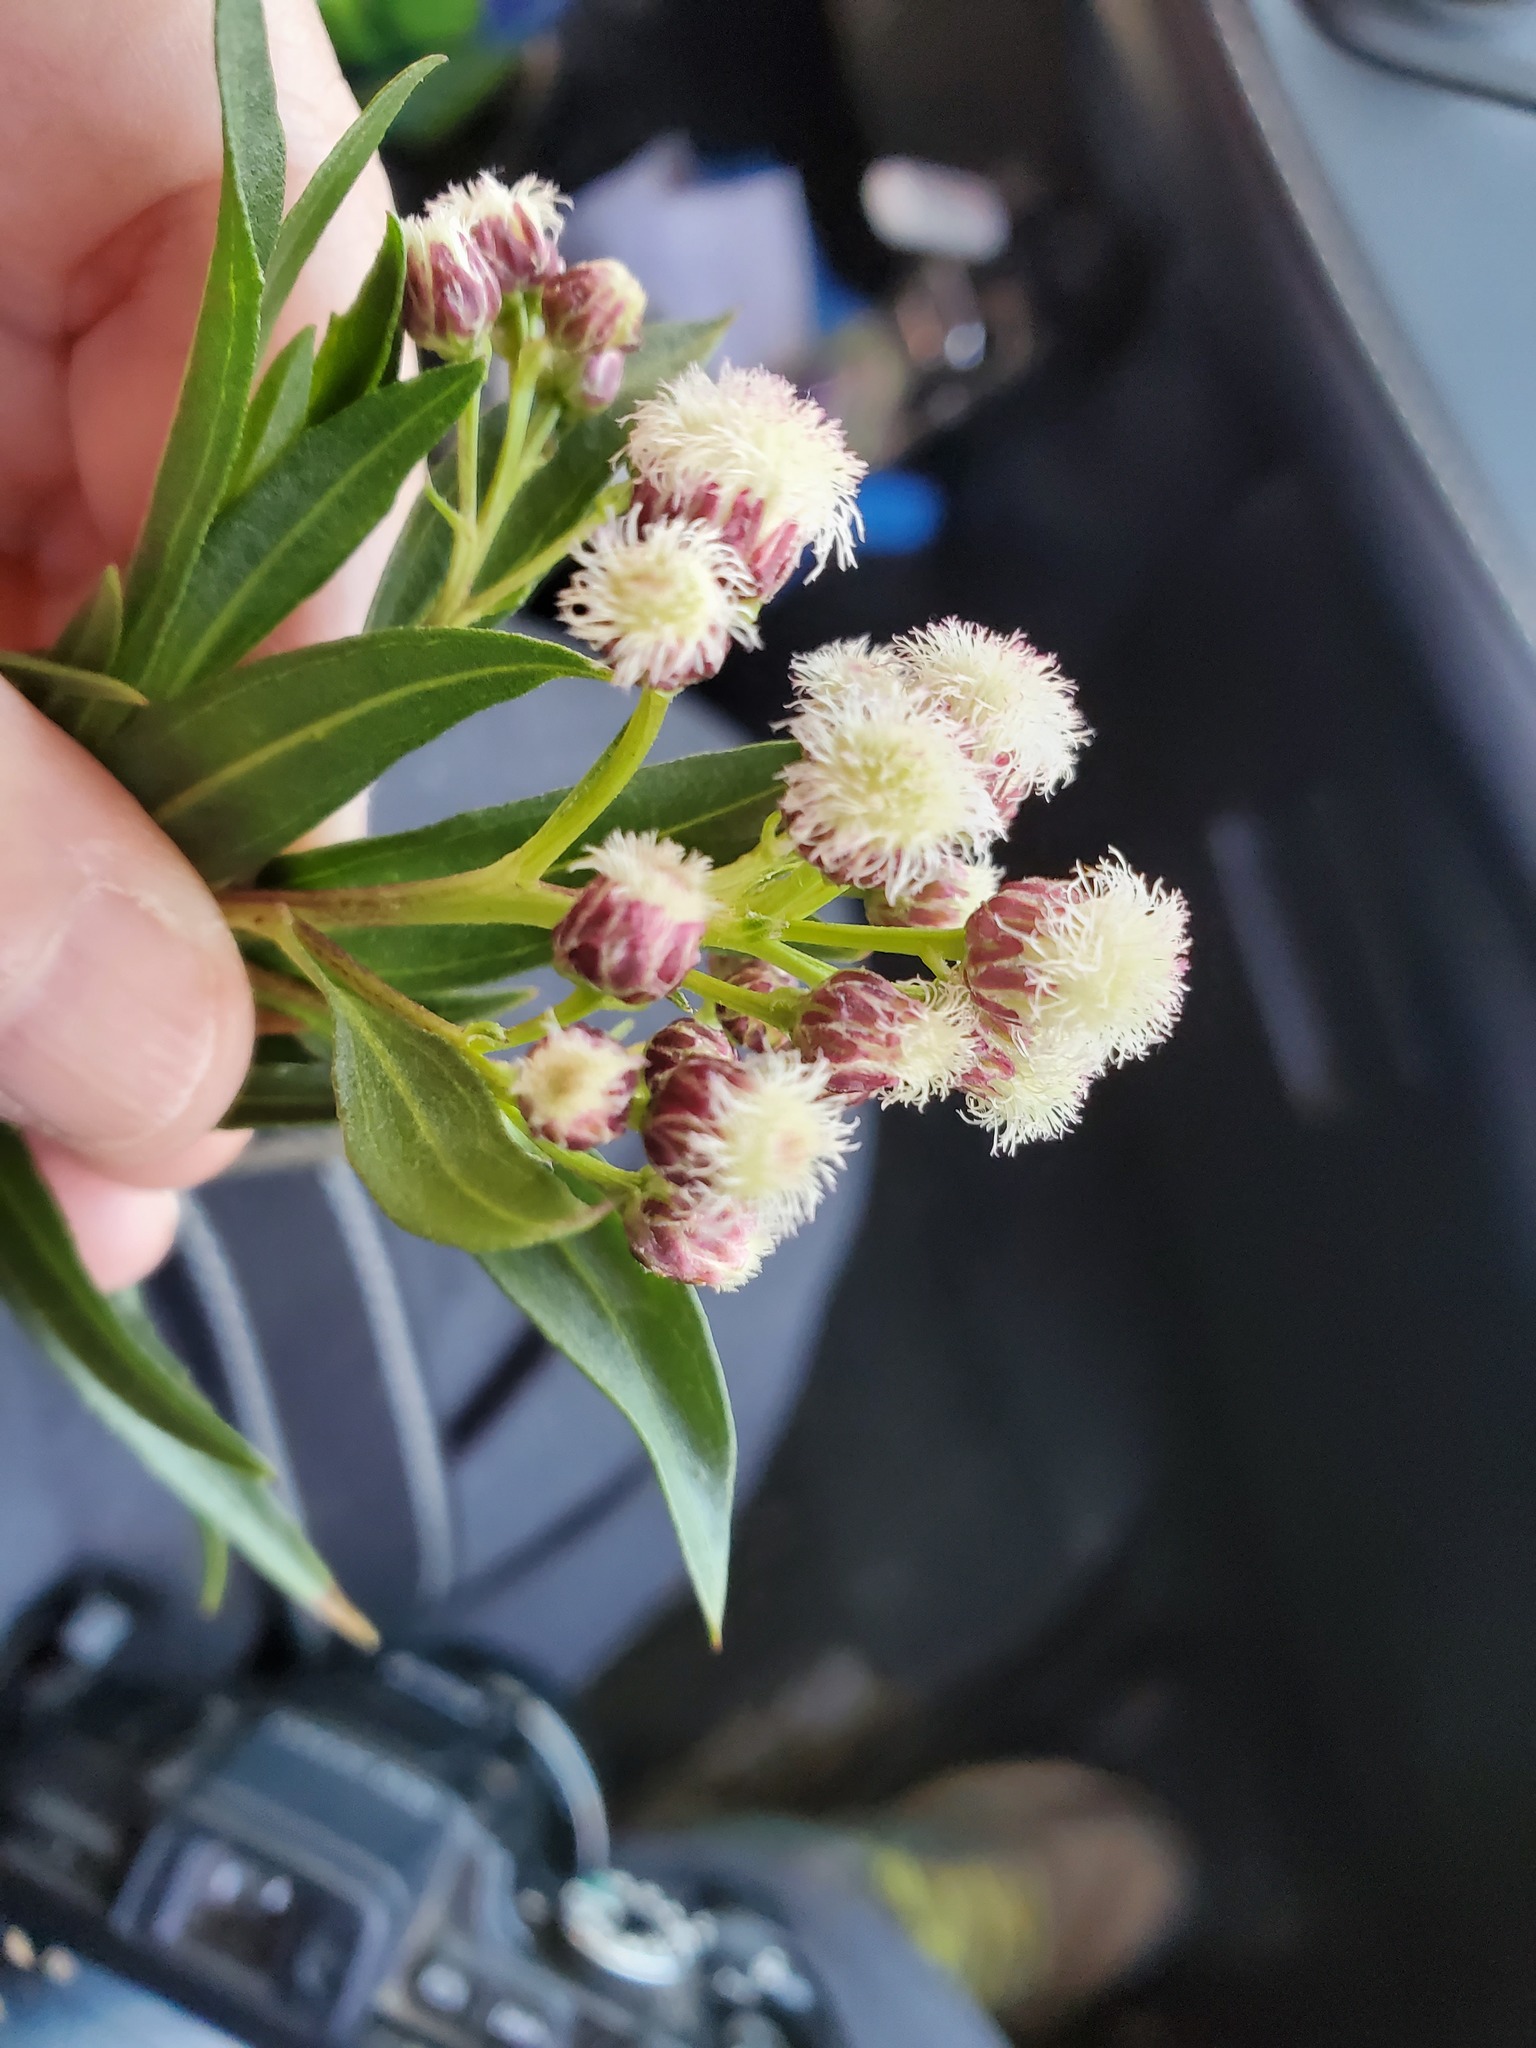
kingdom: Plantae
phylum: Tracheophyta
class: Magnoliopsida
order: Asterales
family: Asteraceae
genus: Baccharis
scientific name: Baccharis salicifolia
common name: Sticky baccharis
